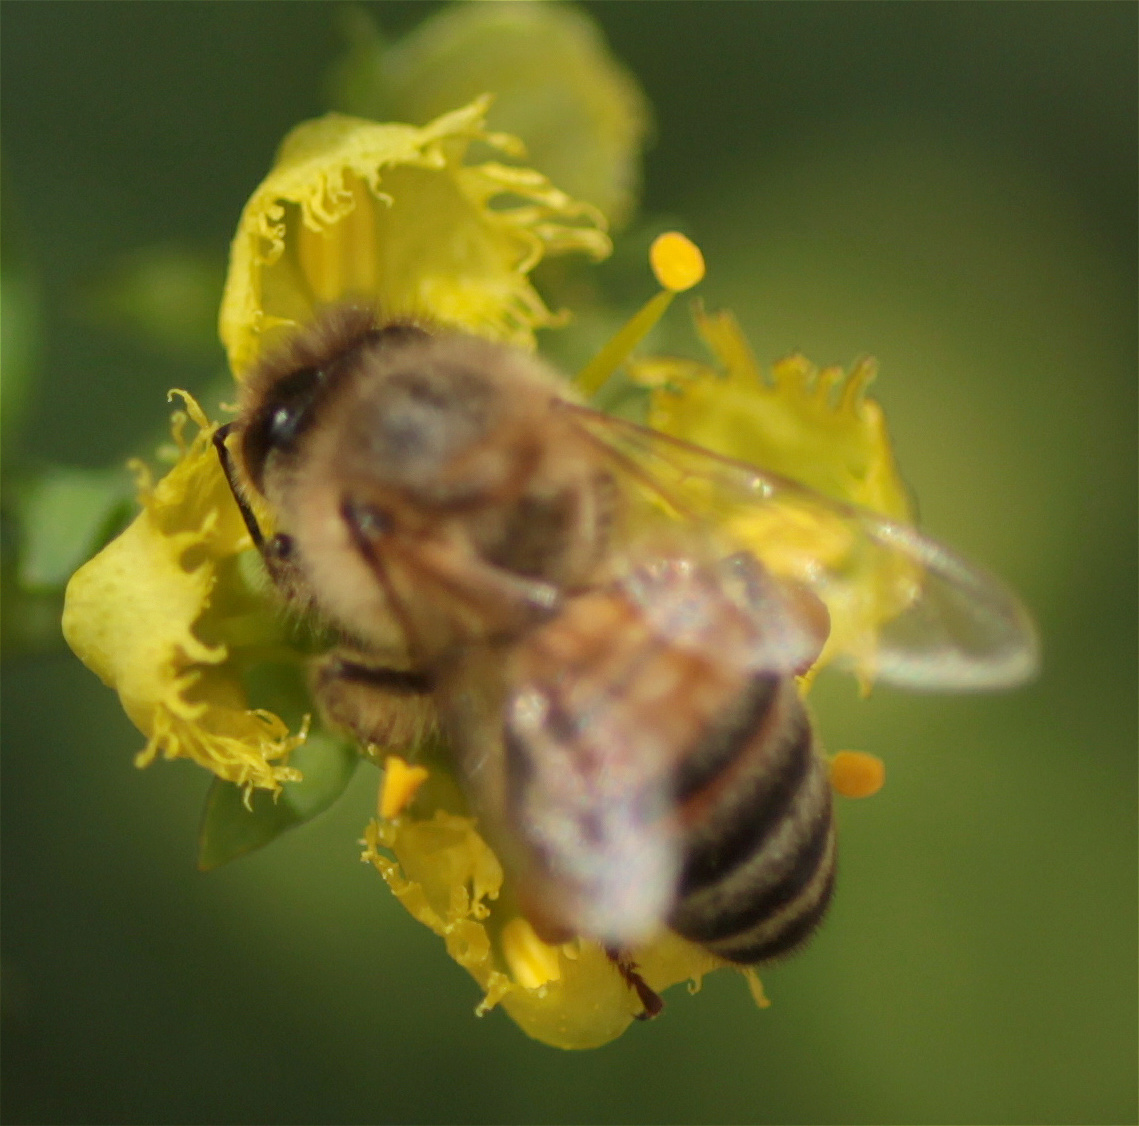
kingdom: Animalia
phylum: Arthropoda
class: Insecta
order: Hymenoptera
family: Apidae
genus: Apis
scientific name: Apis mellifera
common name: Honey bee
